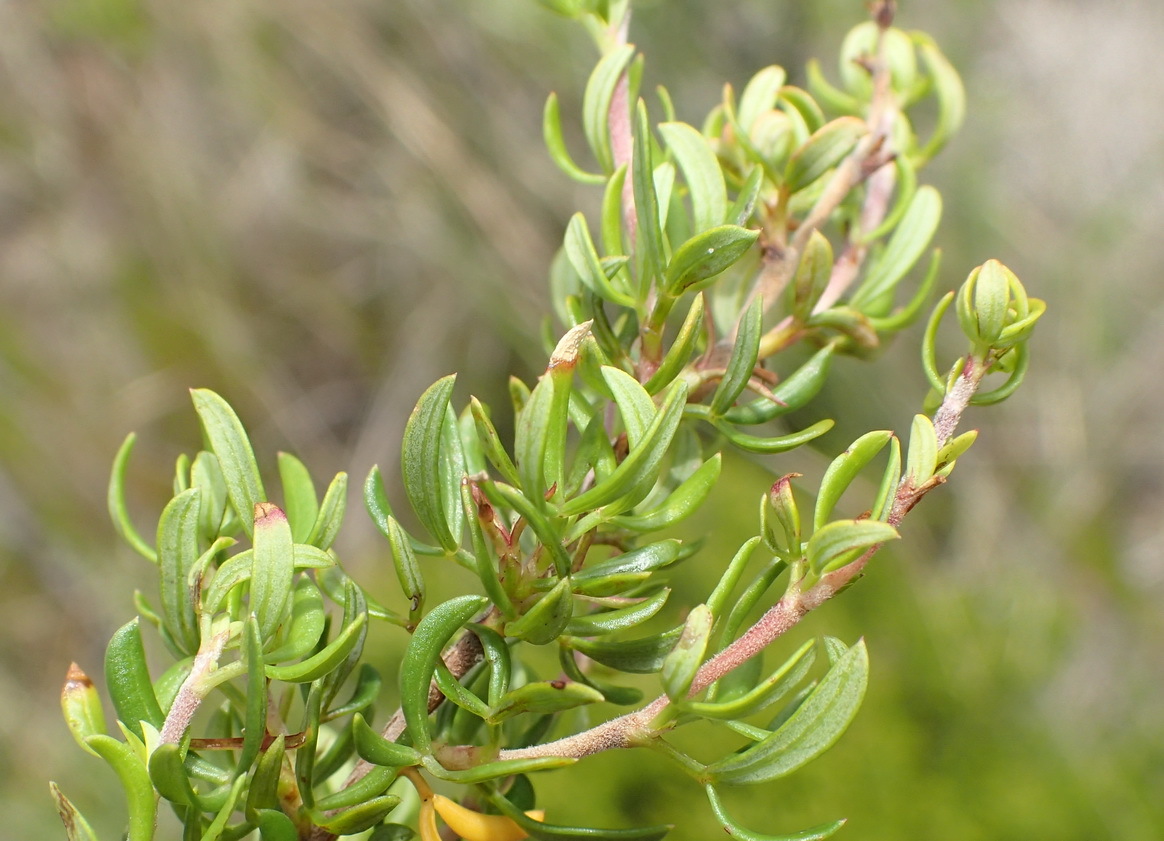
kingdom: Plantae
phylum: Tracheophyta
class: Magnoliopsida
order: Rosales
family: Rosaceae
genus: Cliffortia
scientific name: Cliffortia falcata
